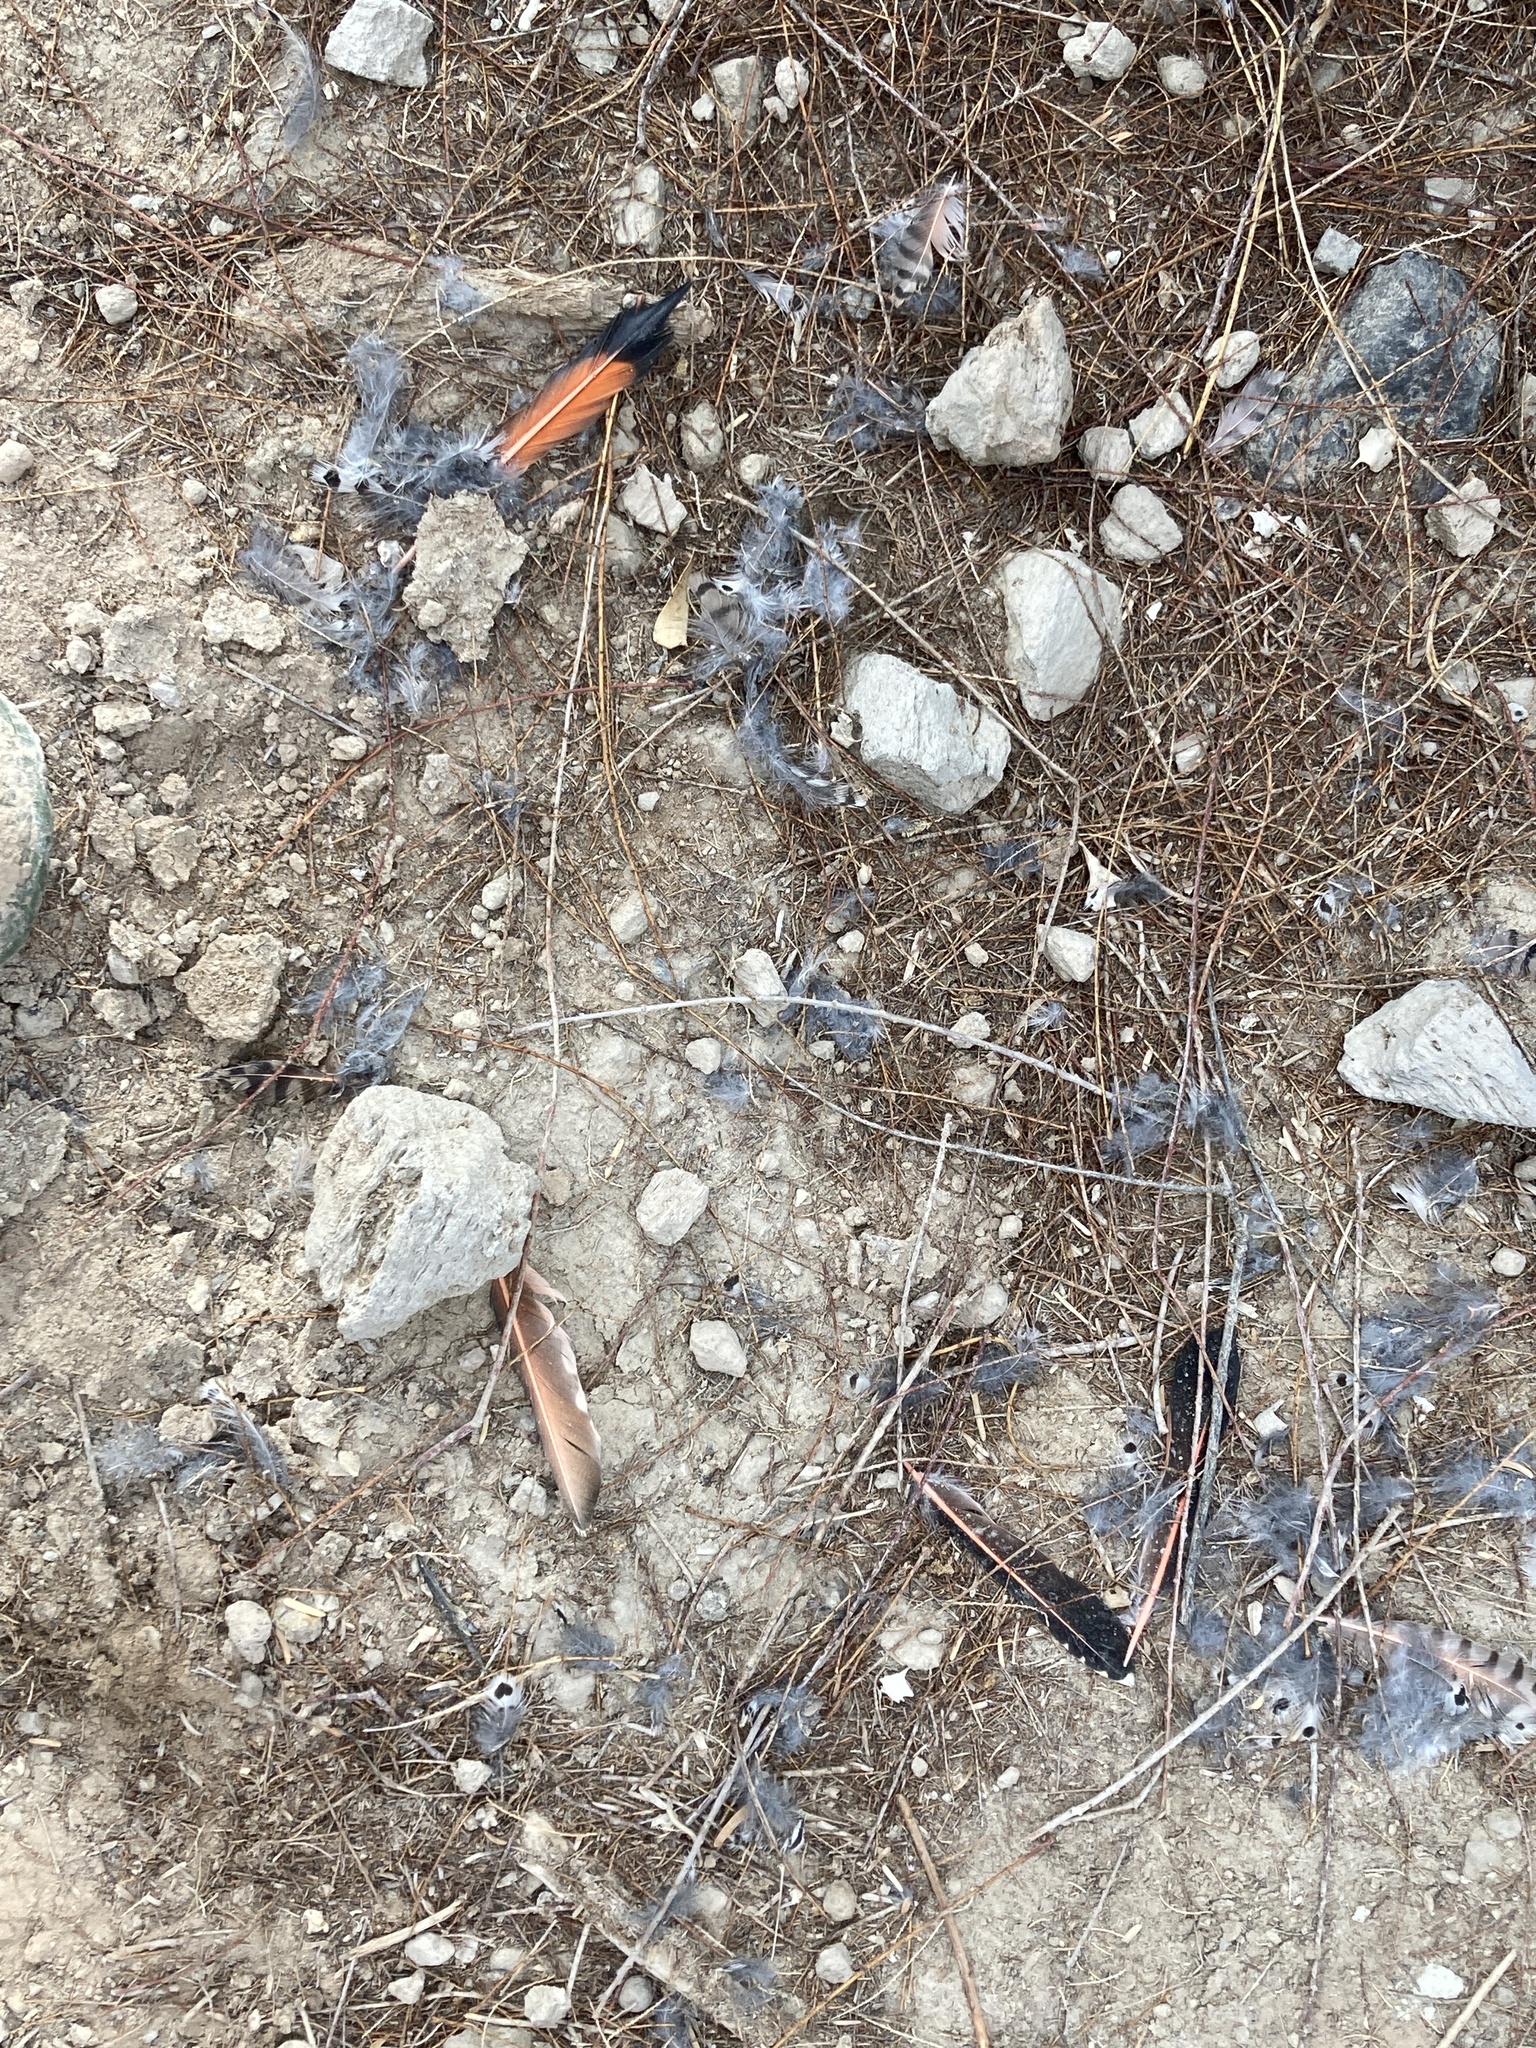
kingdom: Animalia
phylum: Chordata
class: Aves
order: Piciformes
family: Picidae
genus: Colaptes
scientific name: Colaptes auratus
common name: Northern flicker
